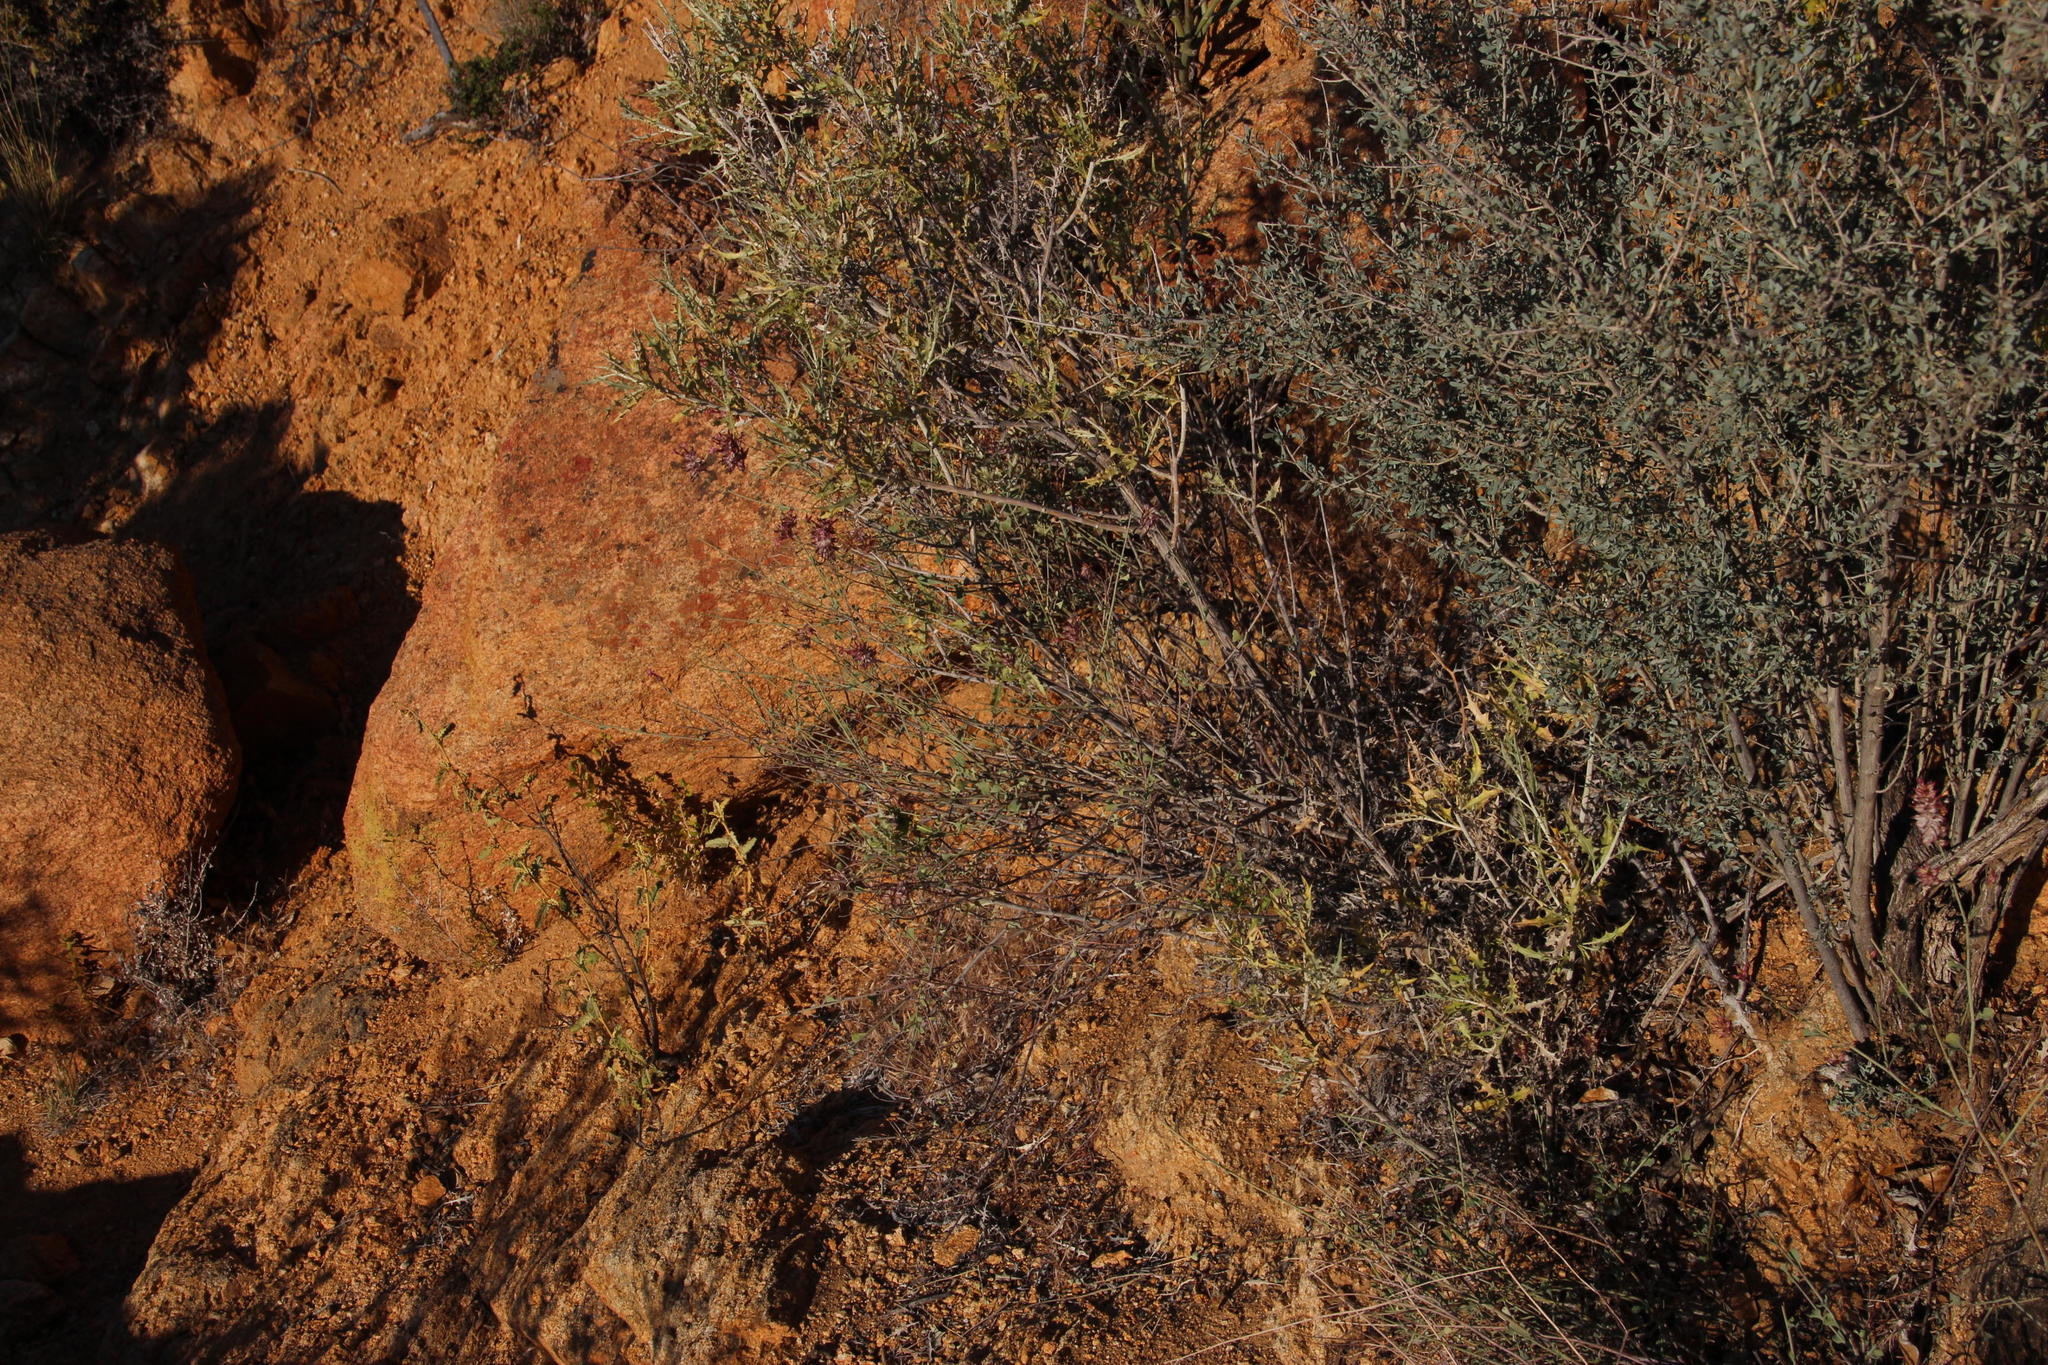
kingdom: Plantae
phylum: Tracheophyta
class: Magnoliopsida
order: Caryophyllales
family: Plumbaginaceae
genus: Dyerophytum
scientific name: Dyerophytum africanum
